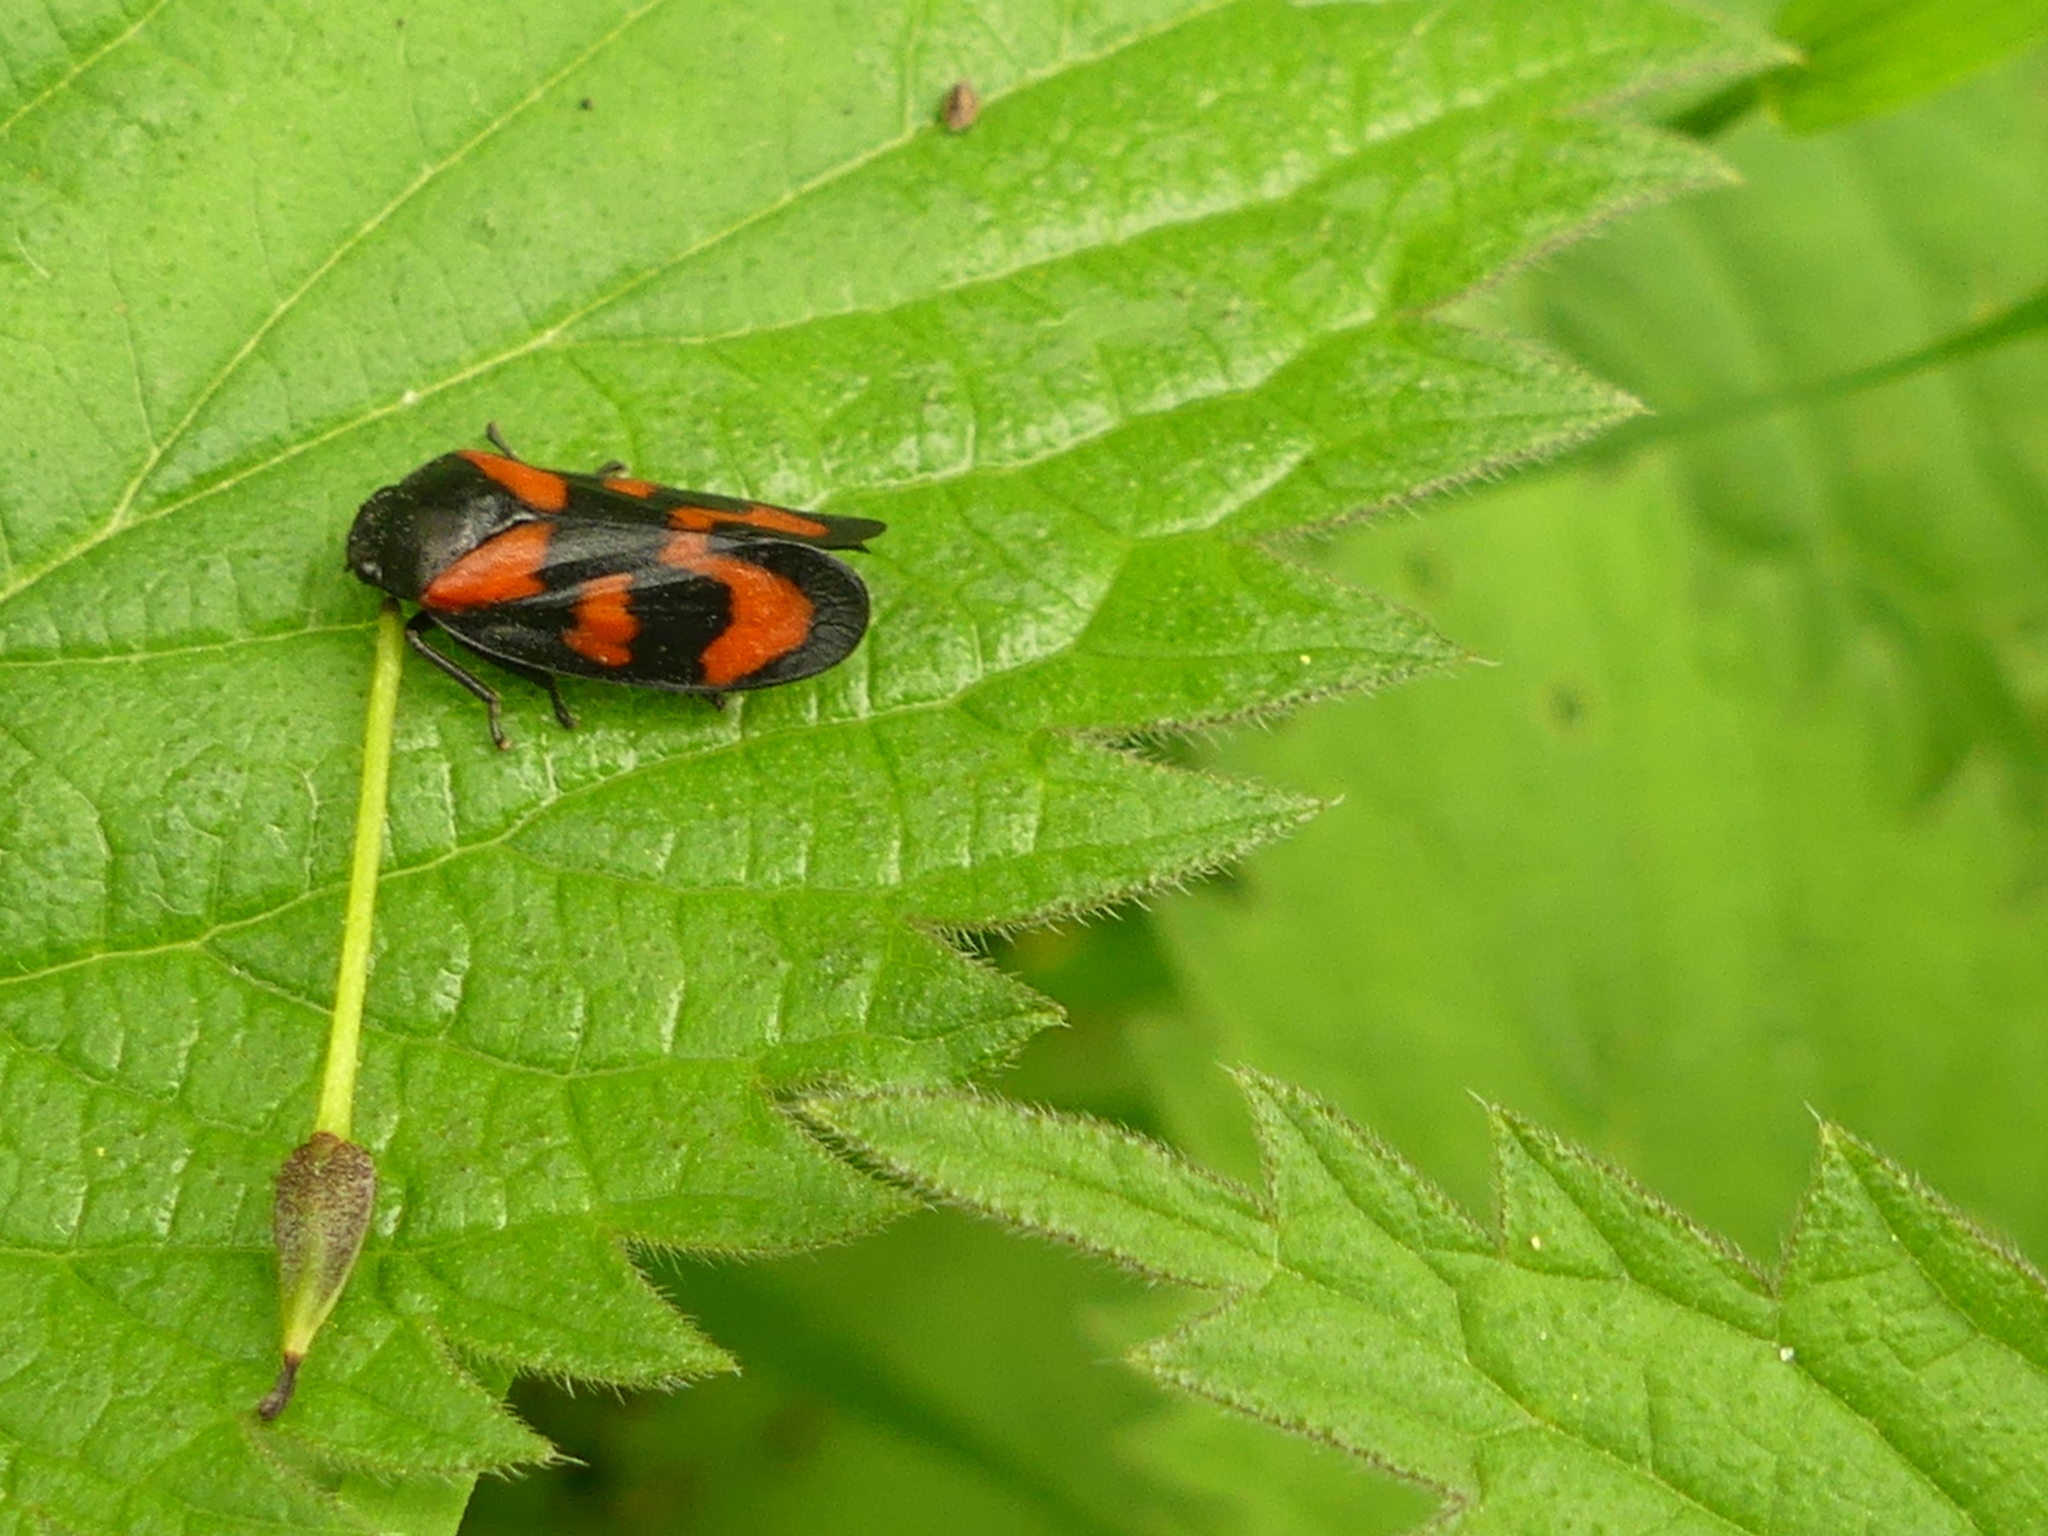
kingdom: Animalia
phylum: Arthropoda
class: Insecta
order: Hemiptera
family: Cercopidae
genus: Cercopis
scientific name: Cercopis vulnerata
